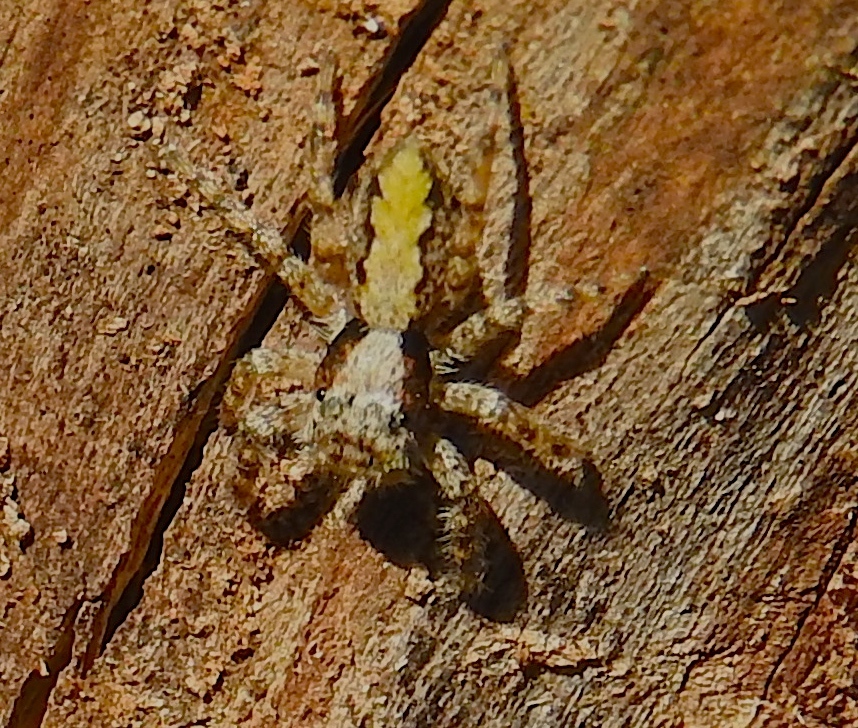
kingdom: Animalia
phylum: Arthropoda
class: Arachnida
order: Araneae
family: Salticidae
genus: Balmaceda
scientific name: Balmaceda
